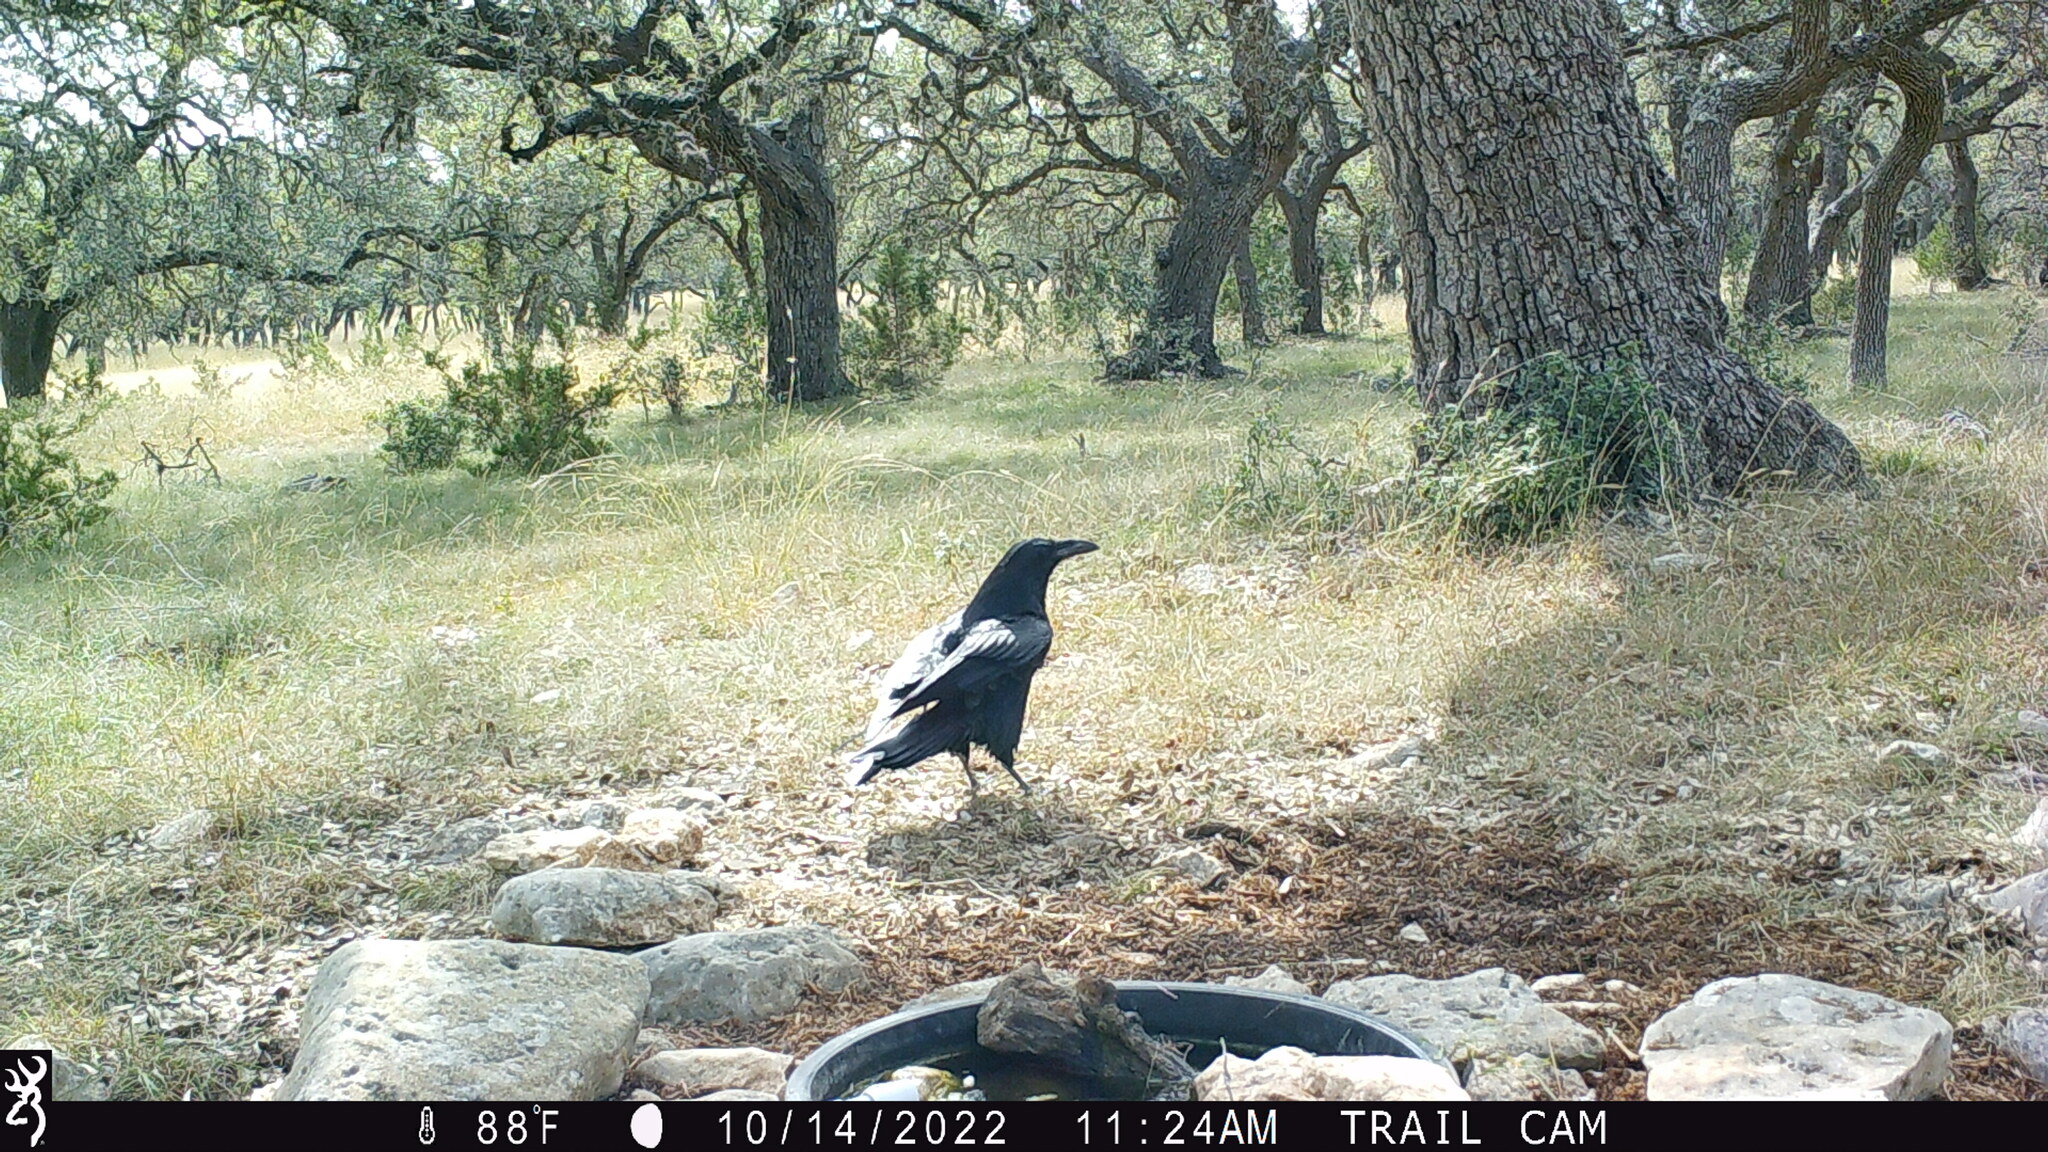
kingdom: Animalia
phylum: Chordata
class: Aves
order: Passeriformes
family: Corvidae
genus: Corvus
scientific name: Corvus corax
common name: Common raven
